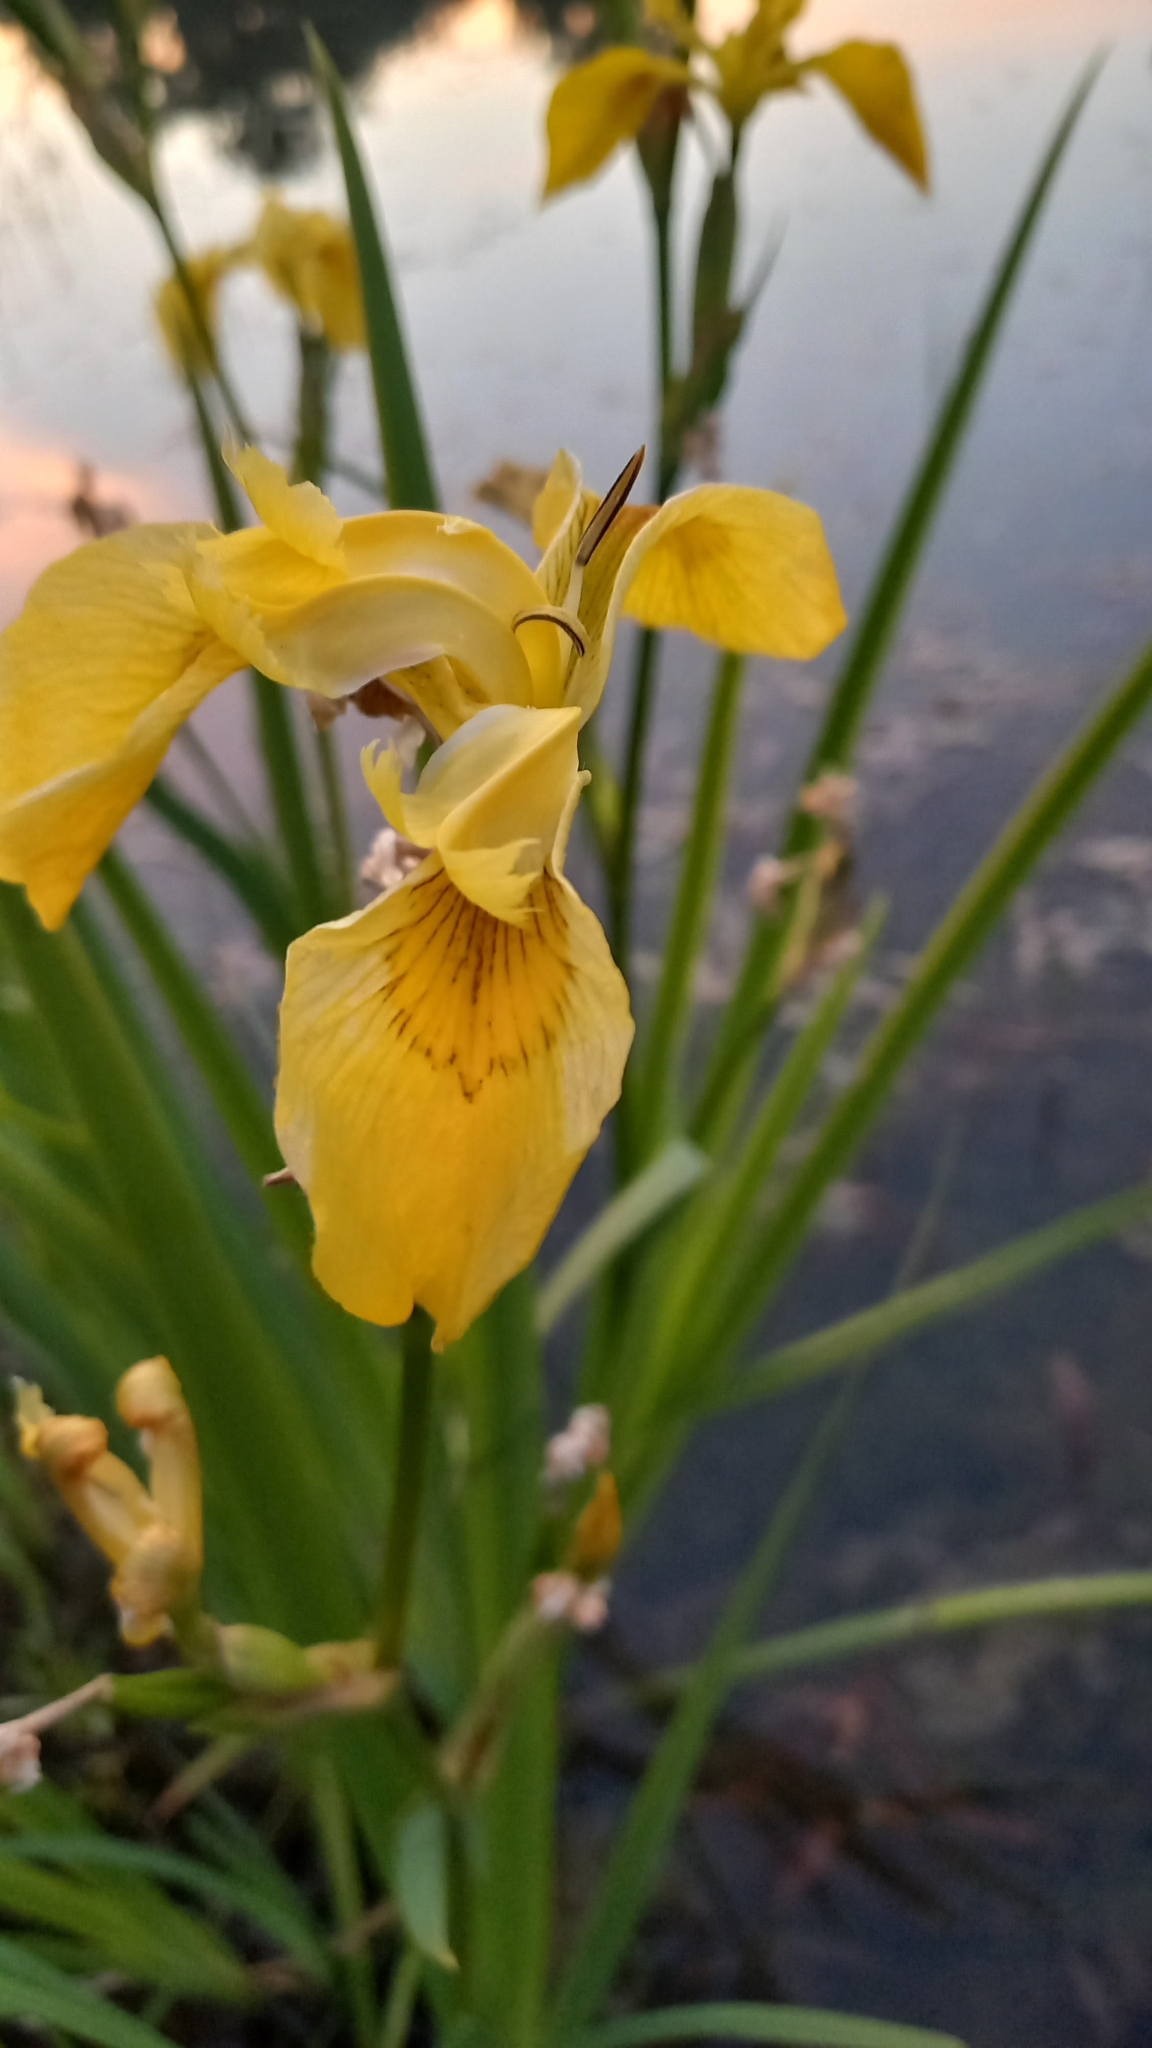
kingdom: Plantae
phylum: Tracheophyta
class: Liliopsida
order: Asparagales
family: Iridaceae
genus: Iris
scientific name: Iris pseudacorus
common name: Yellow flag
